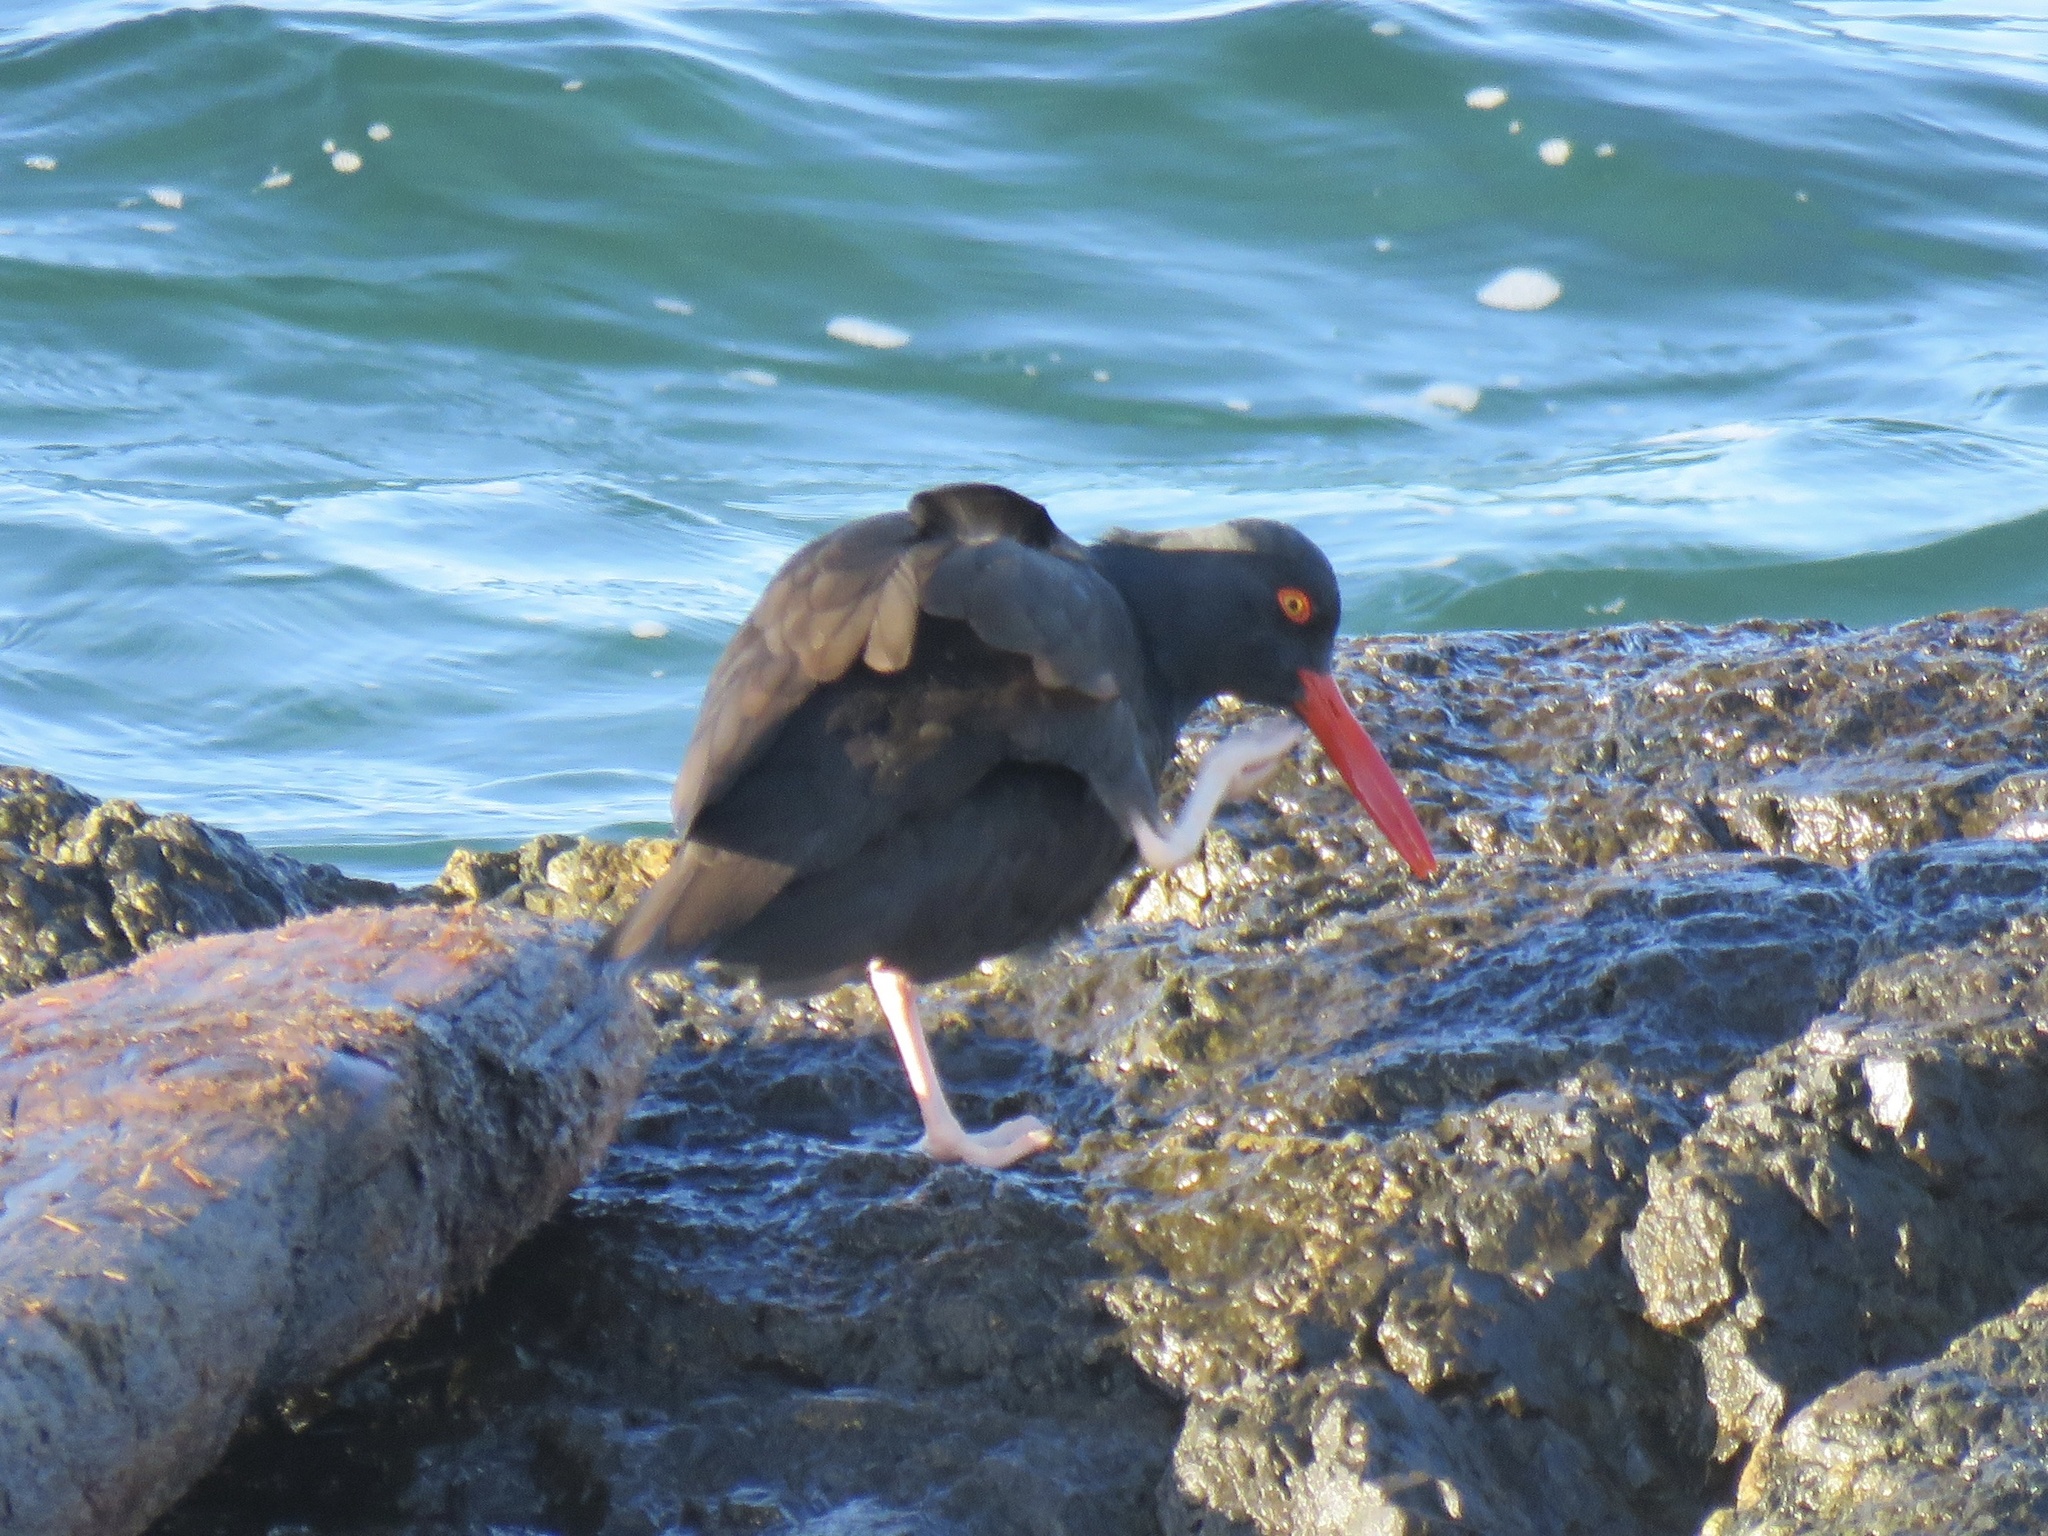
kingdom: Animalia
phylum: Chordata
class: Aves
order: Charadriiformes
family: Haematopodidae
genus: Haematopus
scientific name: Haematopus bachmani
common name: Black oystercatcher
